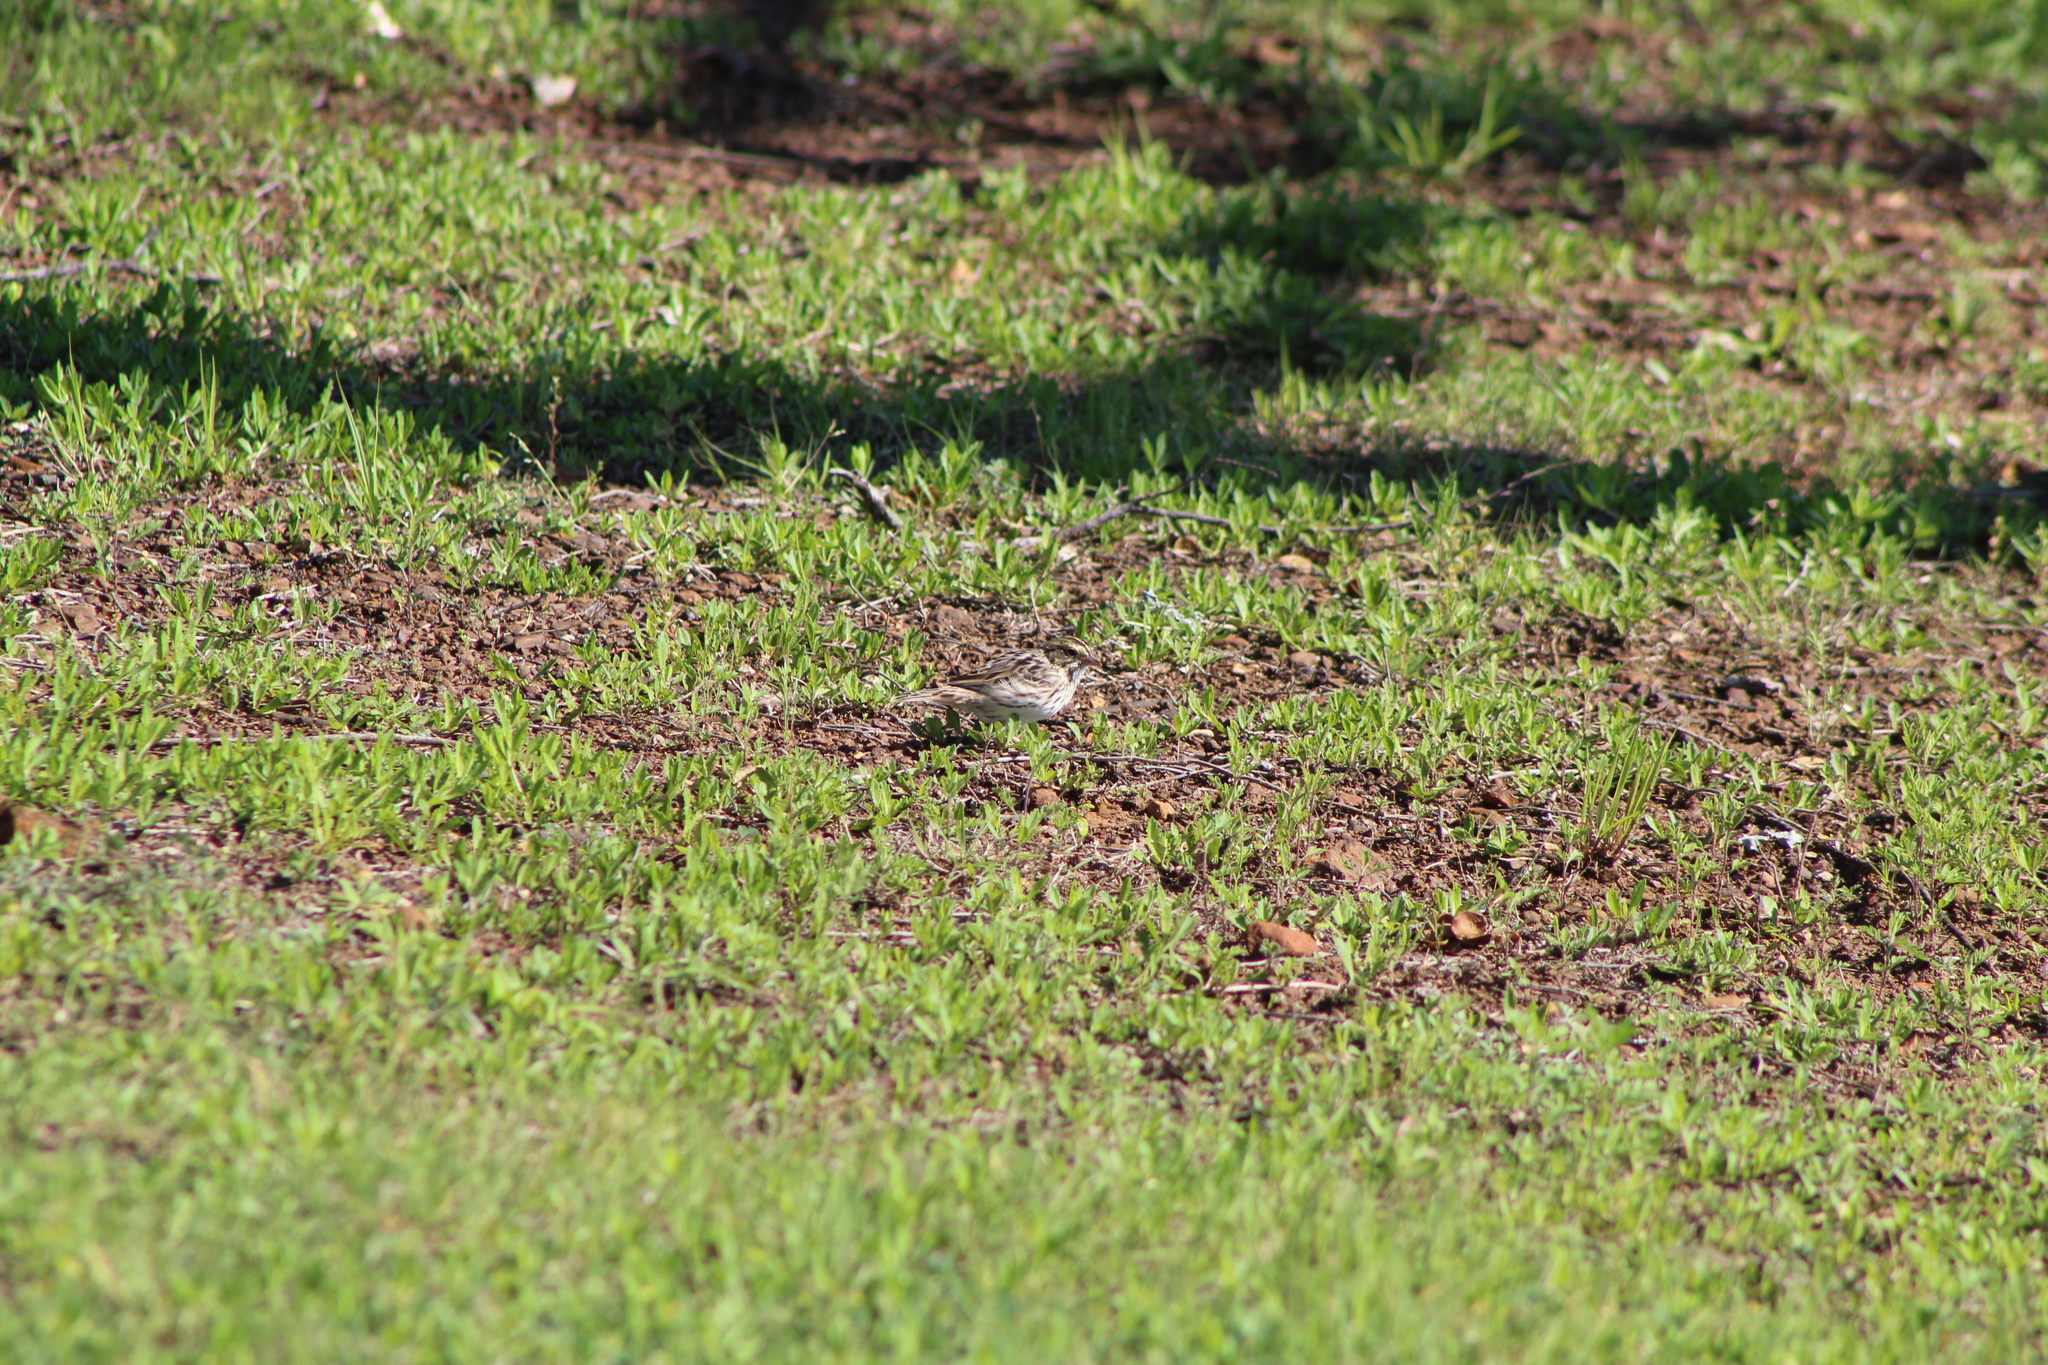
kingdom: Animalia
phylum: Chordata
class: Aves
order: Passeriformes
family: Passerellidae
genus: Passerculus
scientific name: Passerculus sandwichensis
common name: Savannah sparrow
